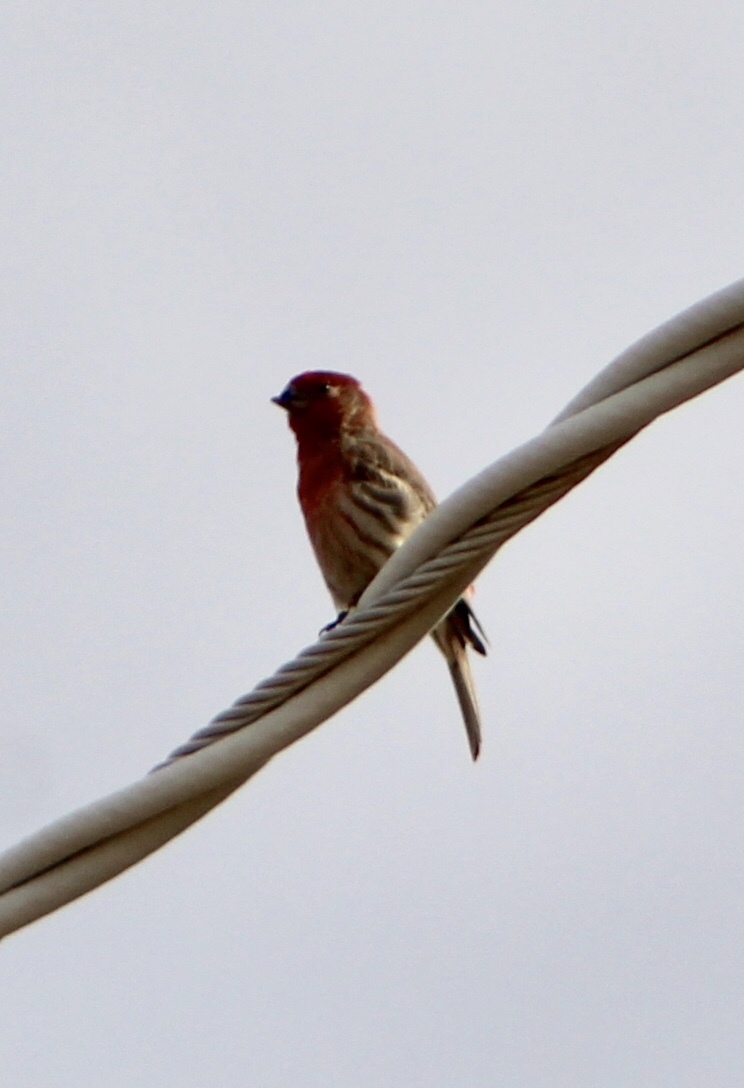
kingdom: Animalia
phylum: Chordata
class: Aves
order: Passeriformes
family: Fringillidae
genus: Haemorhous
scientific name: Haemorhous mexicanus
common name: House finch
